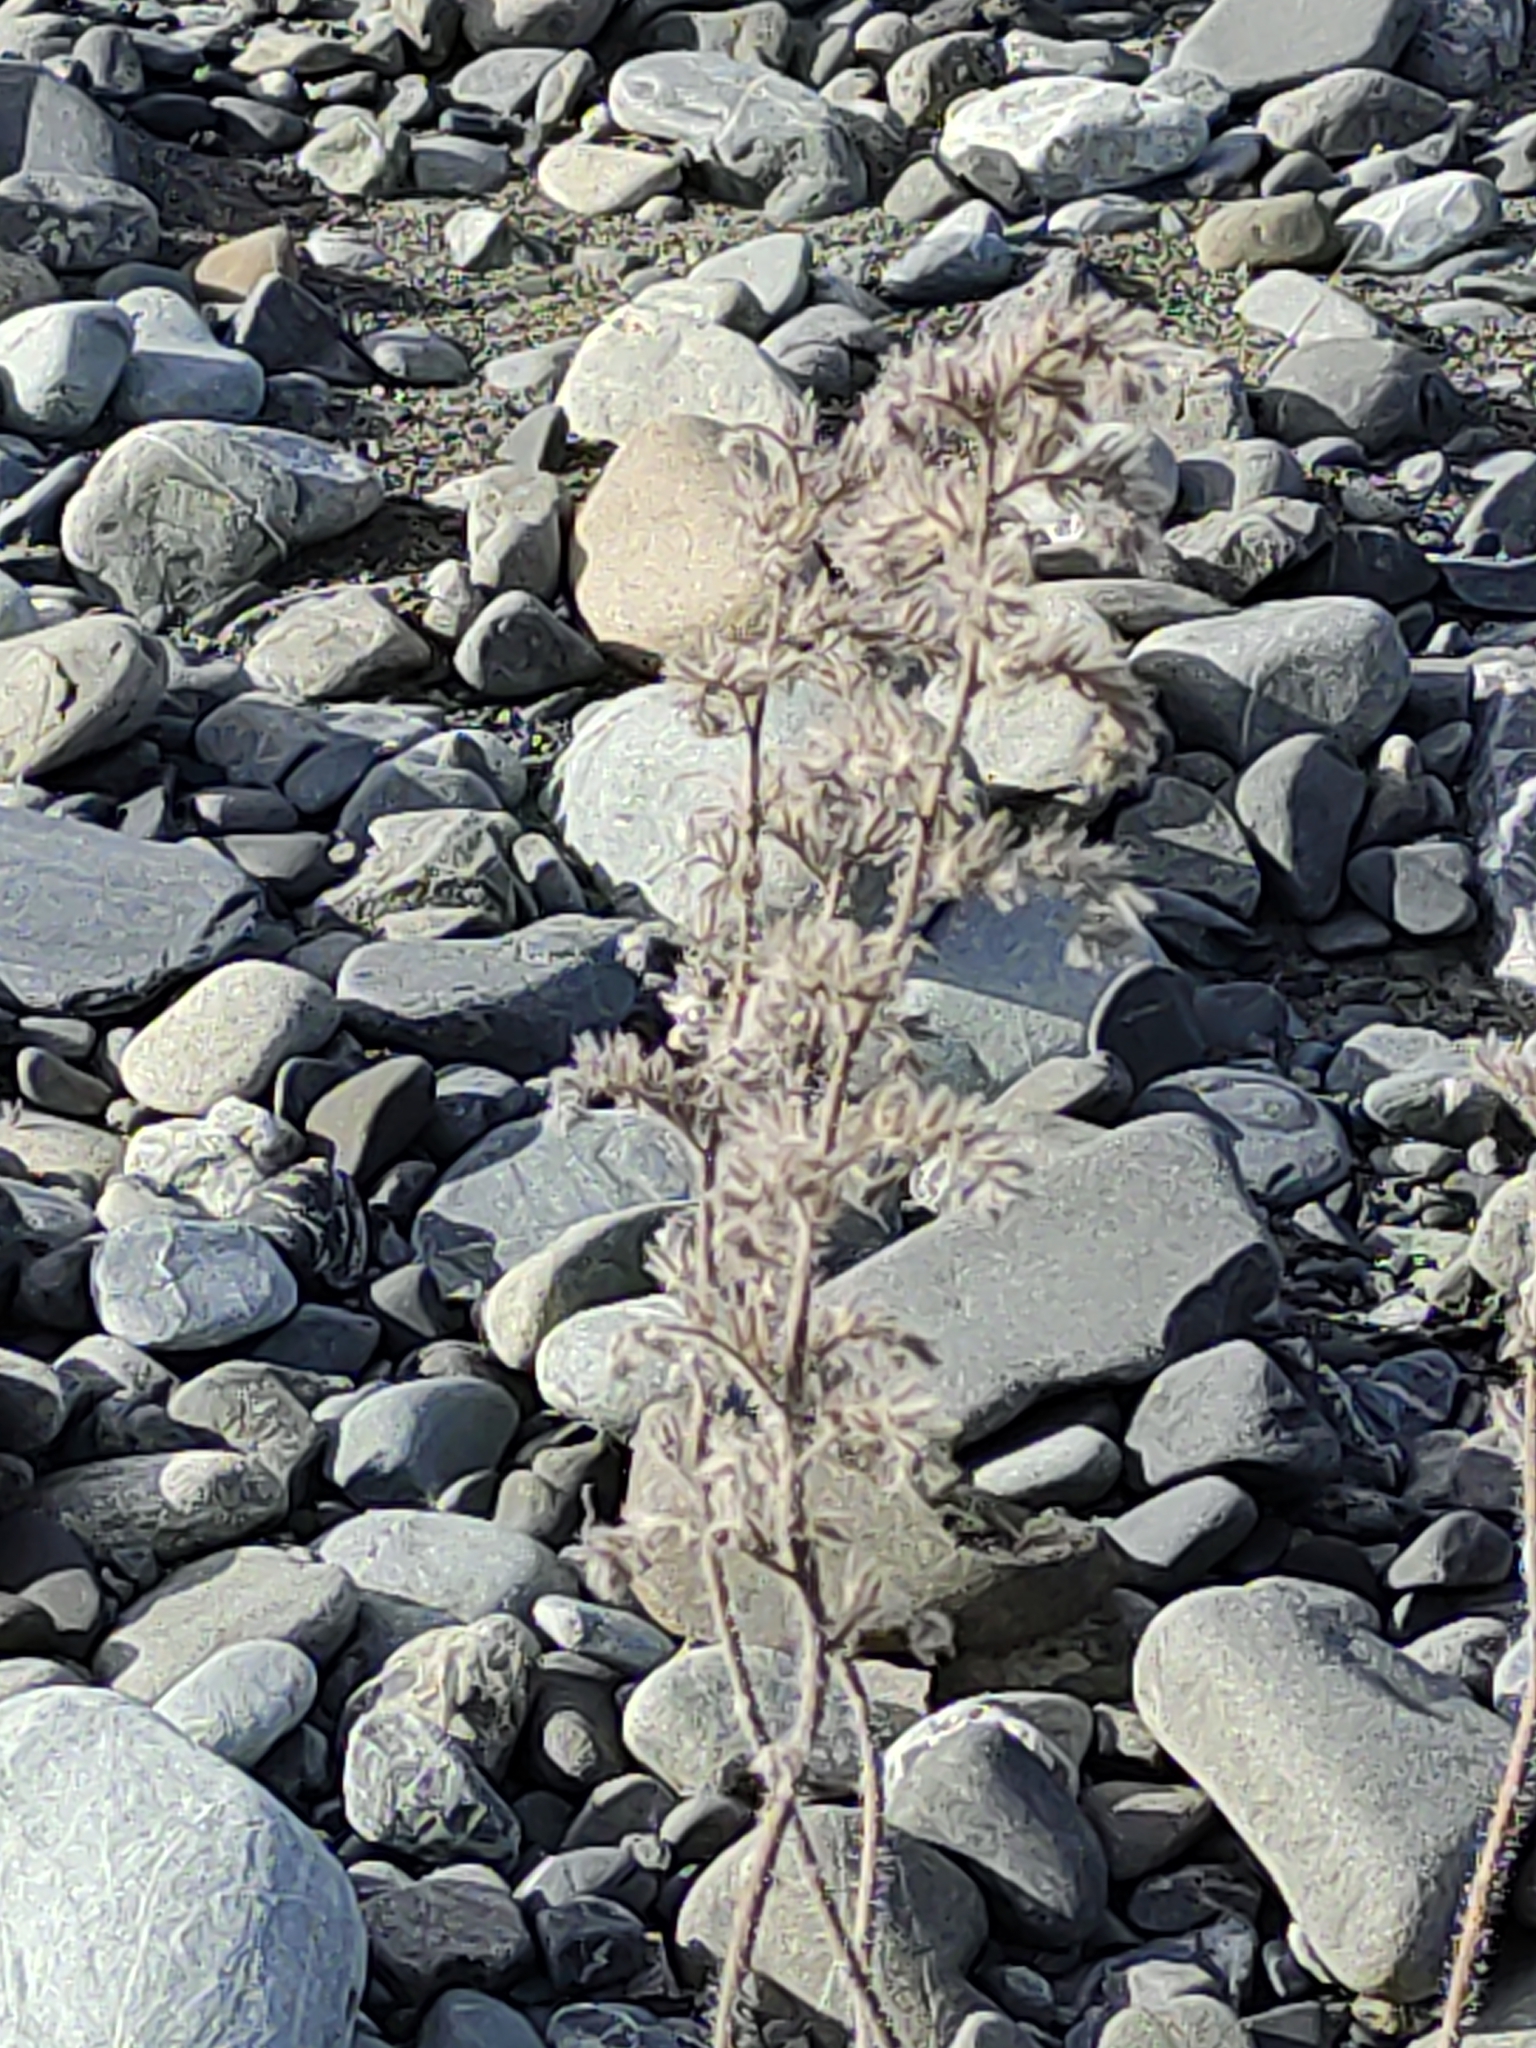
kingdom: Plantae
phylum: Tracheophyta
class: Magnoliopsida
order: Boraginales
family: Boraginaceae
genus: Echium
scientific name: Echium vulgare
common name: Common viper's bugloss
